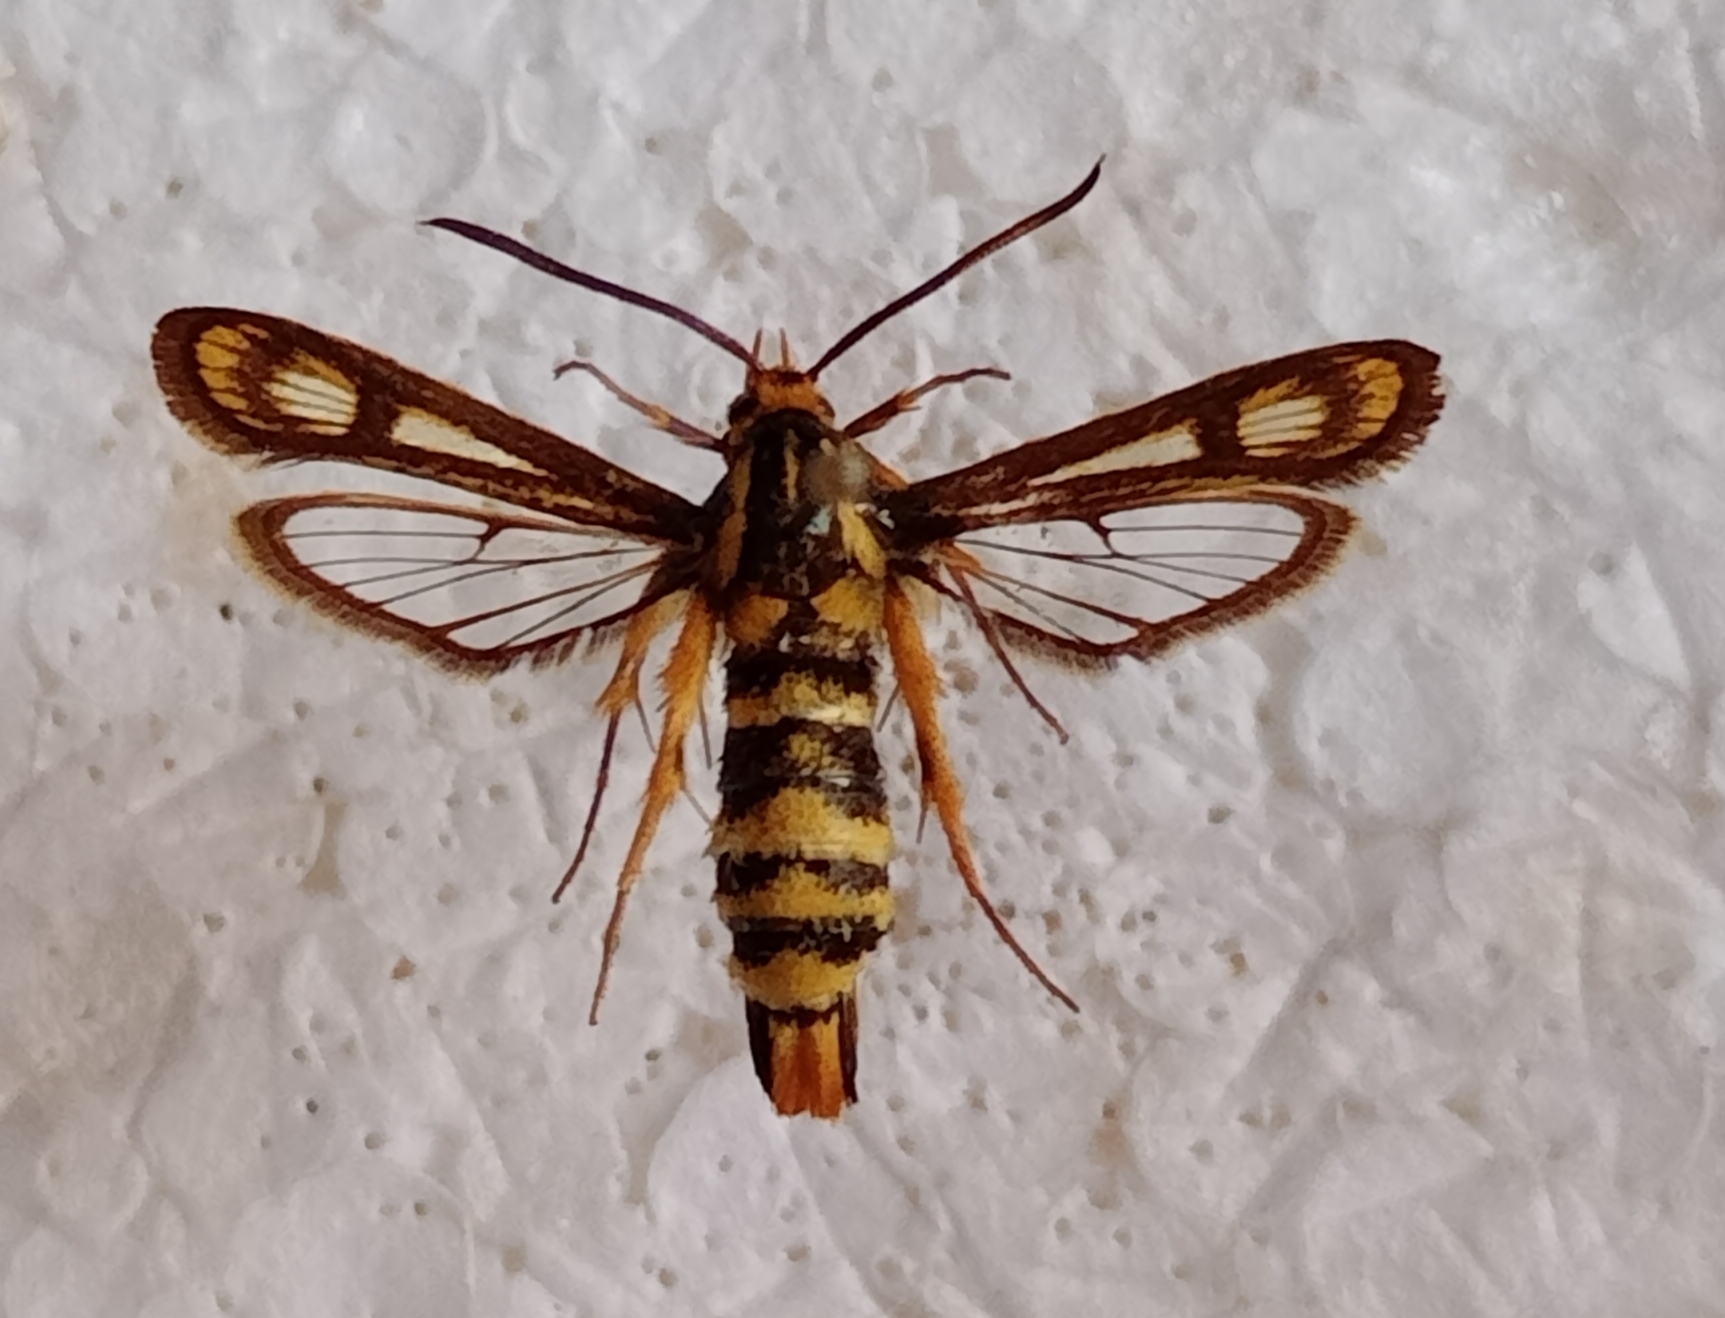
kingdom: Animalia
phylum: Arthropoda
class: Insecta
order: Lepidoptera
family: Sesiidae
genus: Chamaesphecia
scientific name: Chamaesphecia turbida
